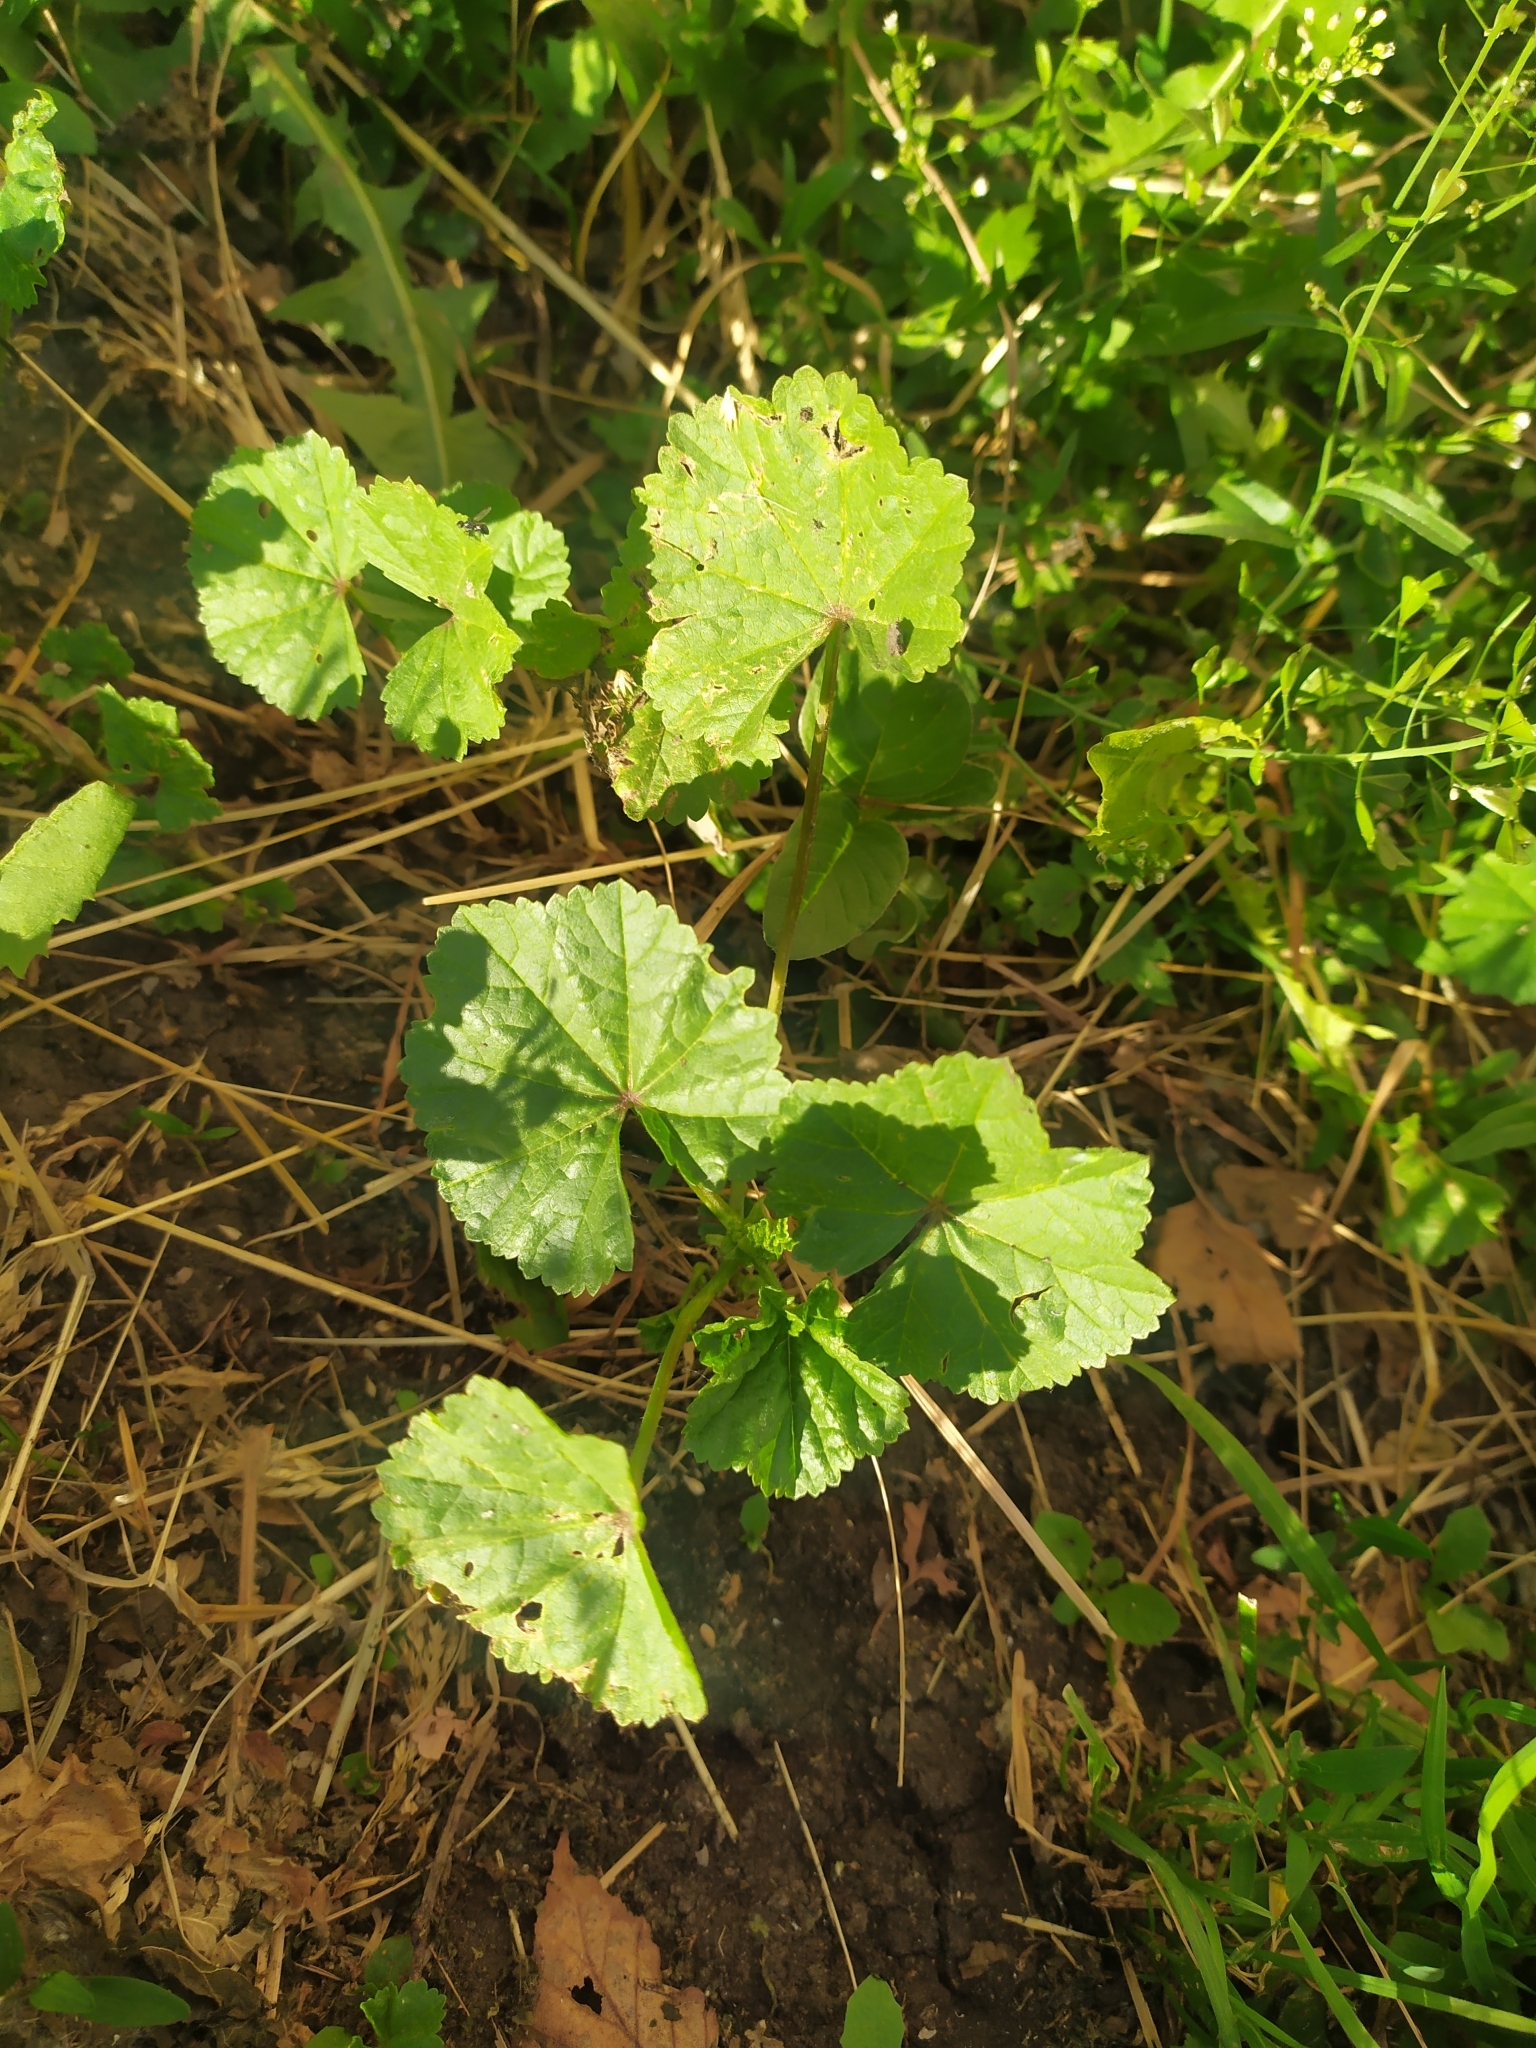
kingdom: Plantae
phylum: Tracheophyta
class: Magnoliopsida
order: Malvales
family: Malvaceae
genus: Malva
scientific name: Malva pusilla
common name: Small mallow
